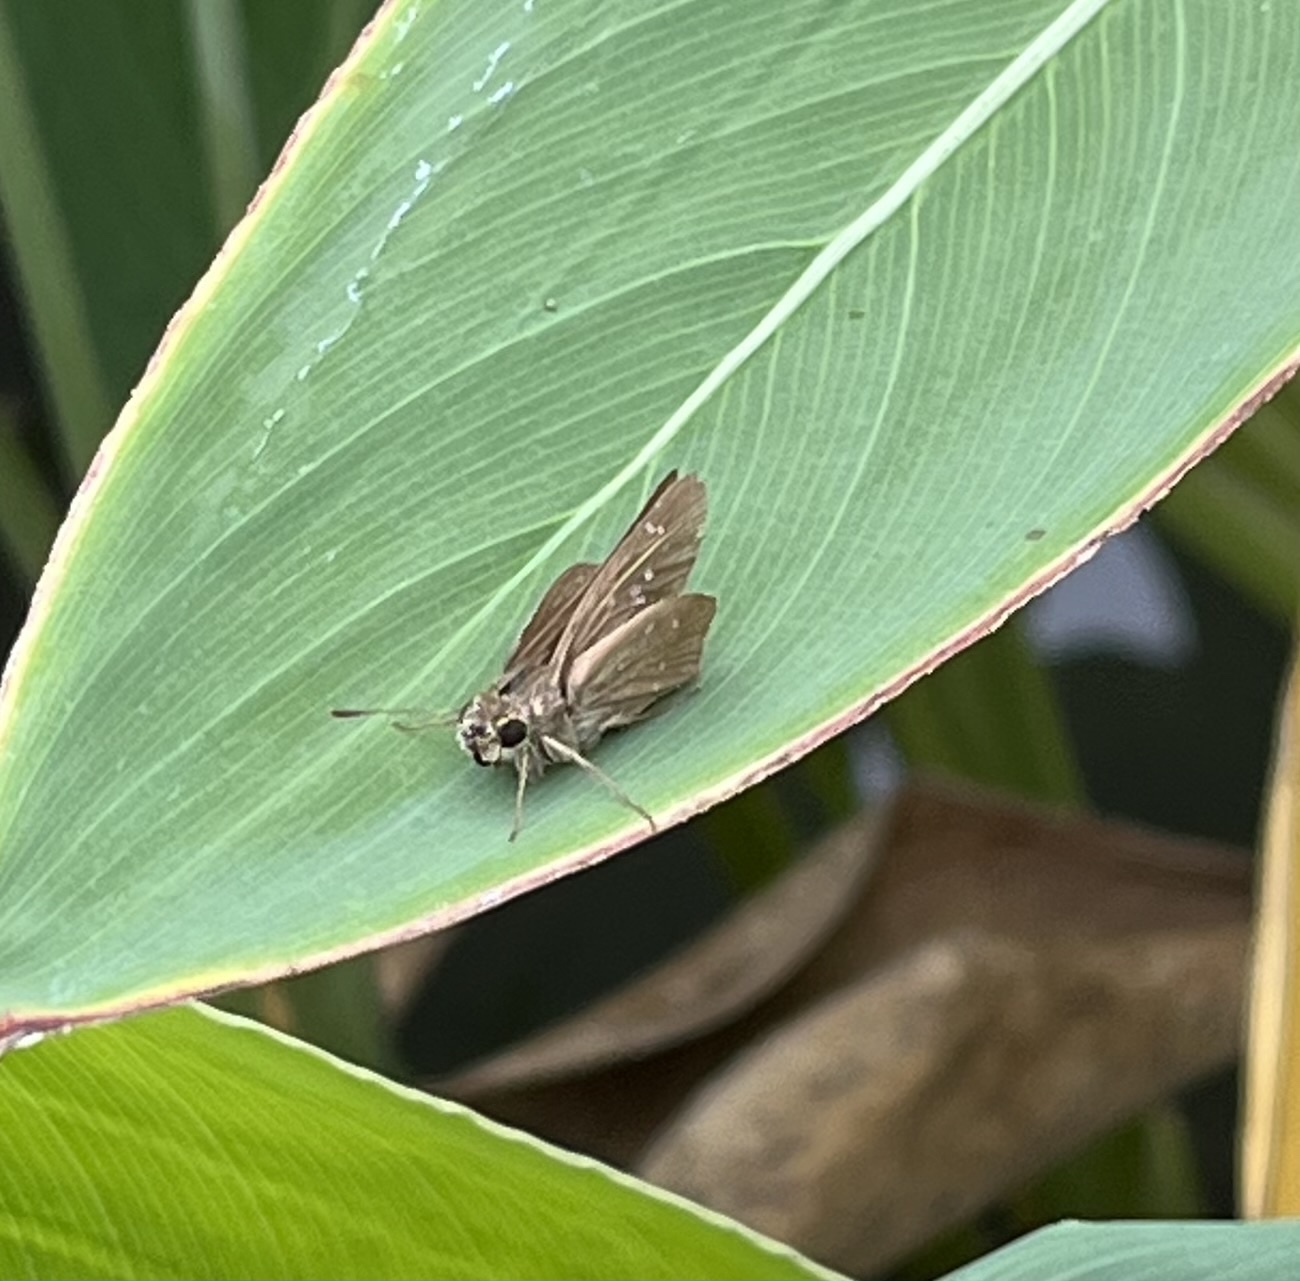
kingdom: Animalia
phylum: Arthropoda
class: Insecta
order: Lepidoptera
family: Hesperiidae
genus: Pelopidas
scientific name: Pelopidas mathias
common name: Black-branded swift
